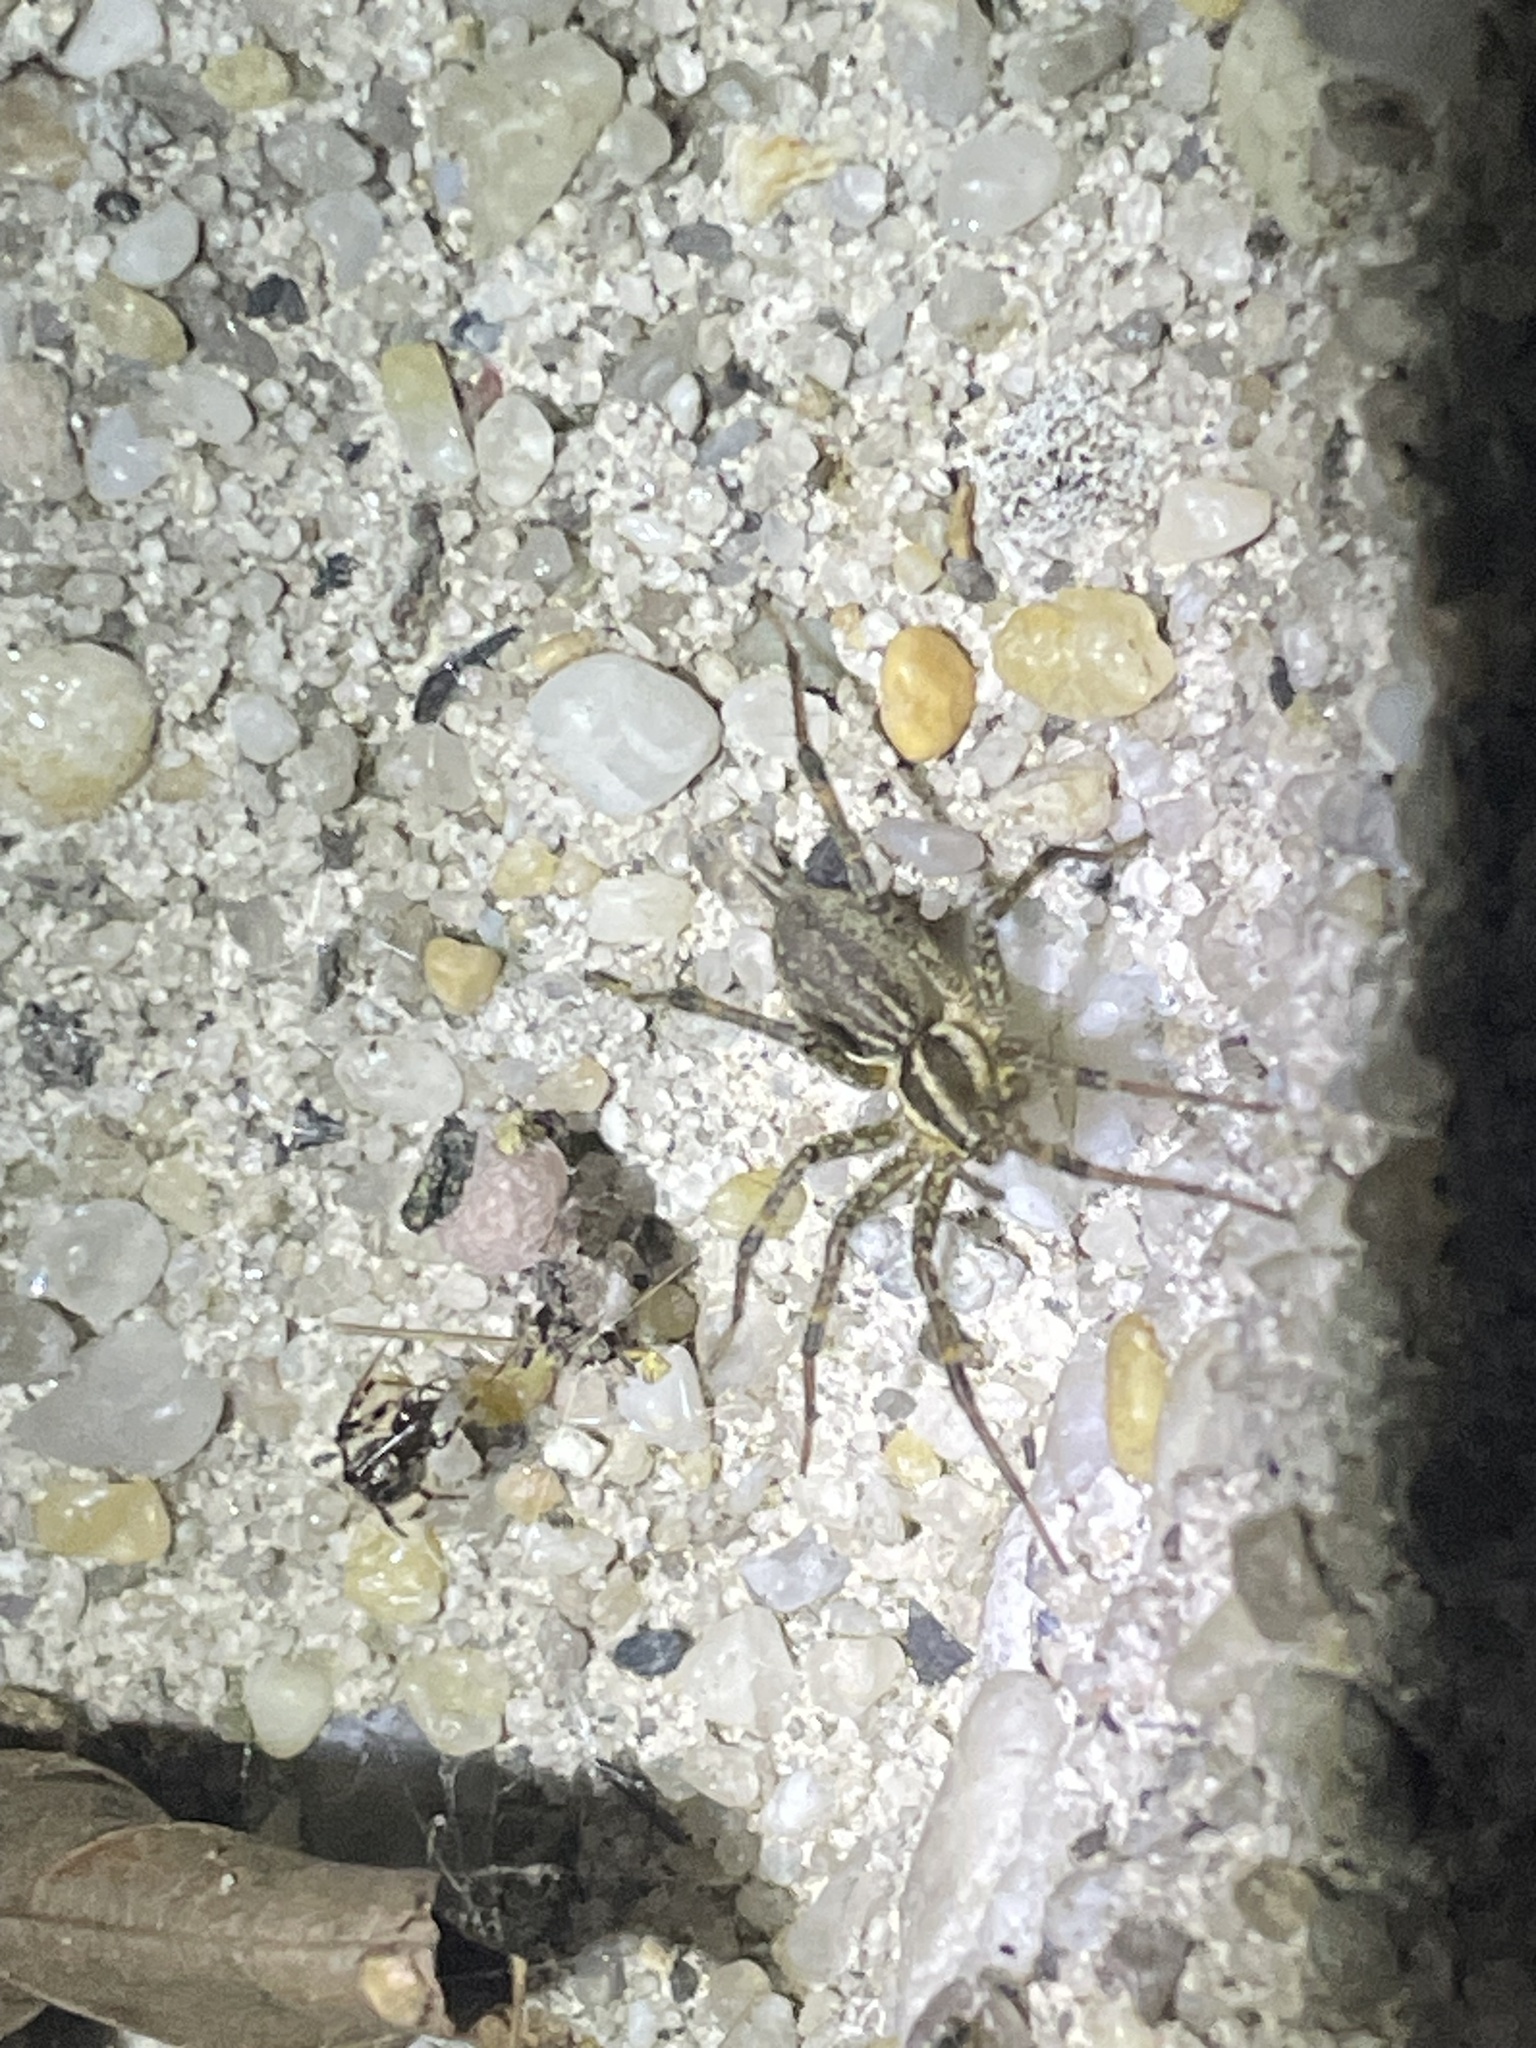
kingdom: Animalia
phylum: Arthropoda
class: Arachnida
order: Araneae
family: Agelenidae
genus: Agelenopsis
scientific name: Agelenopsis
